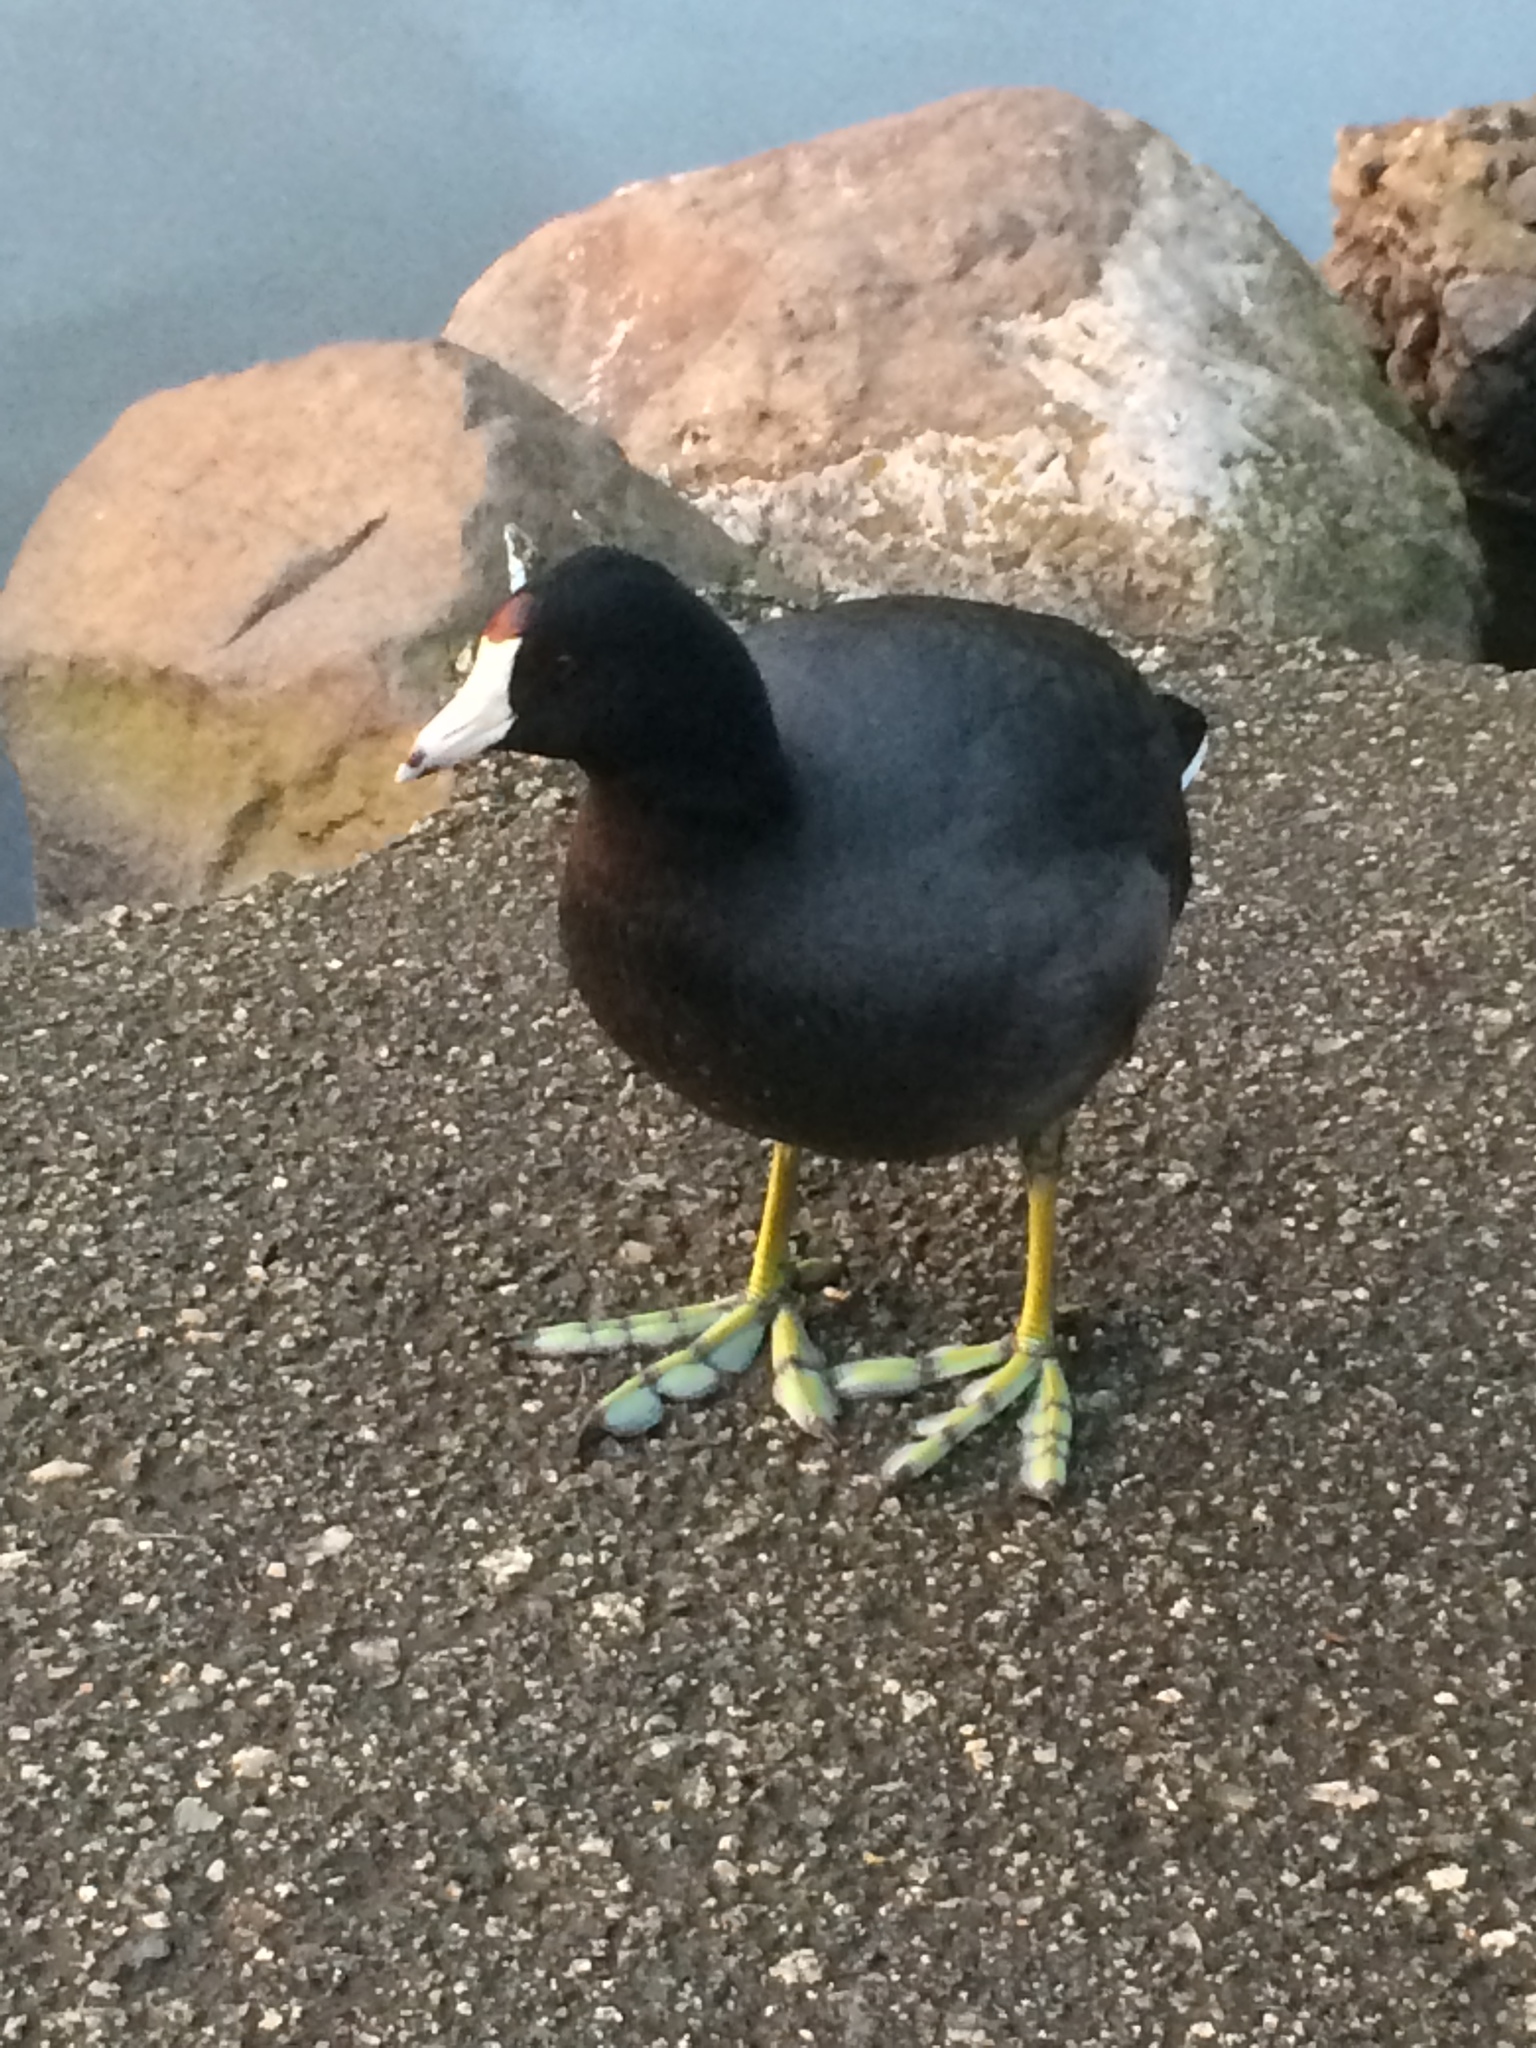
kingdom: Animalia
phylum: Chordata
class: Aves
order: Gruiformes
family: Rallidae
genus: Fulica
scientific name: Fulica americana
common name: American coot
